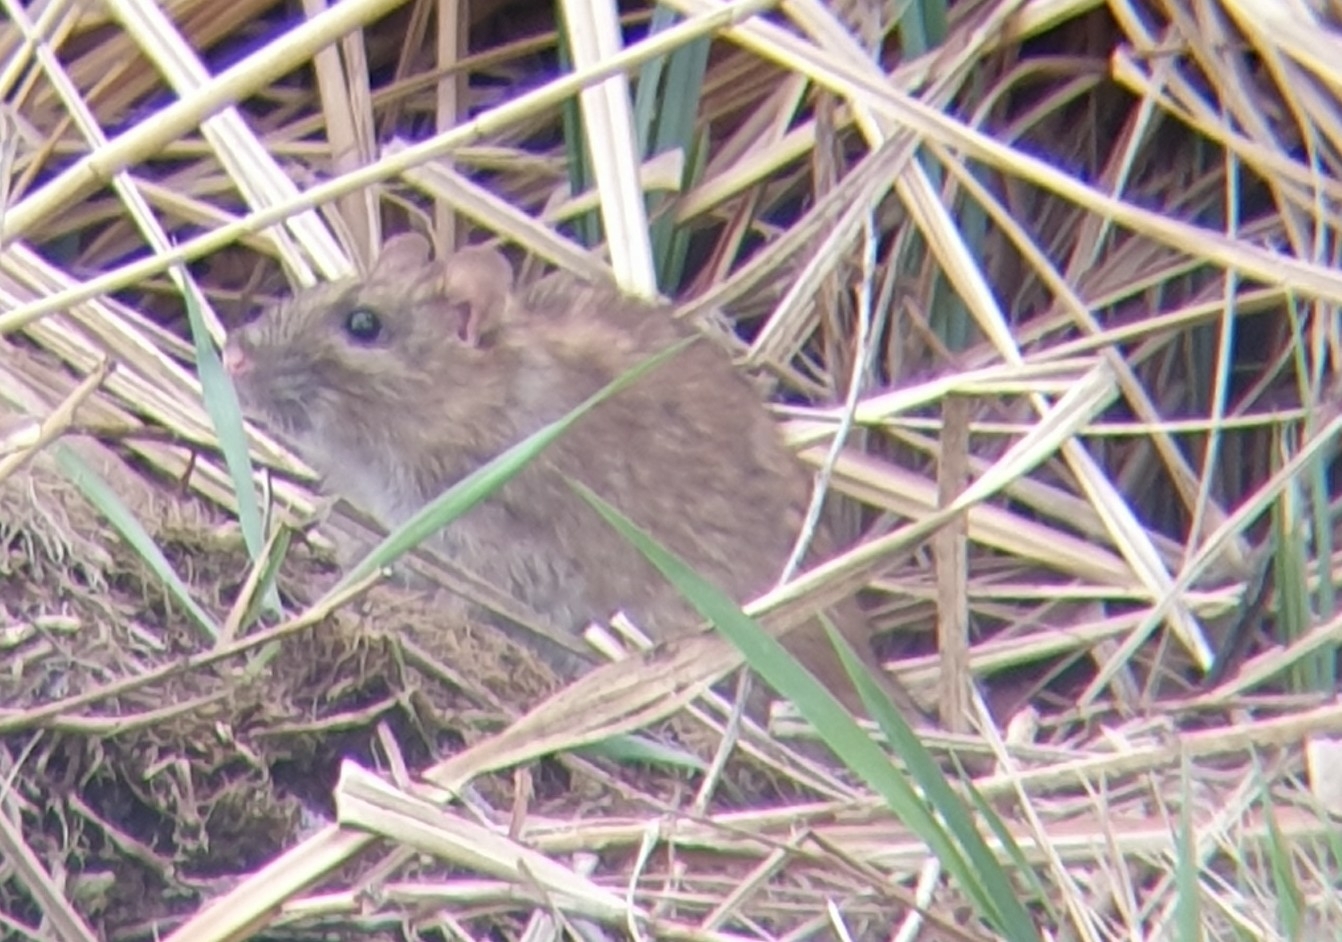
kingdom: Animalia
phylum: Chordata
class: Mammalia
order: Rodentia
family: Muridae
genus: Rattus
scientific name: Rattus norvegicus
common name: Brown rat
